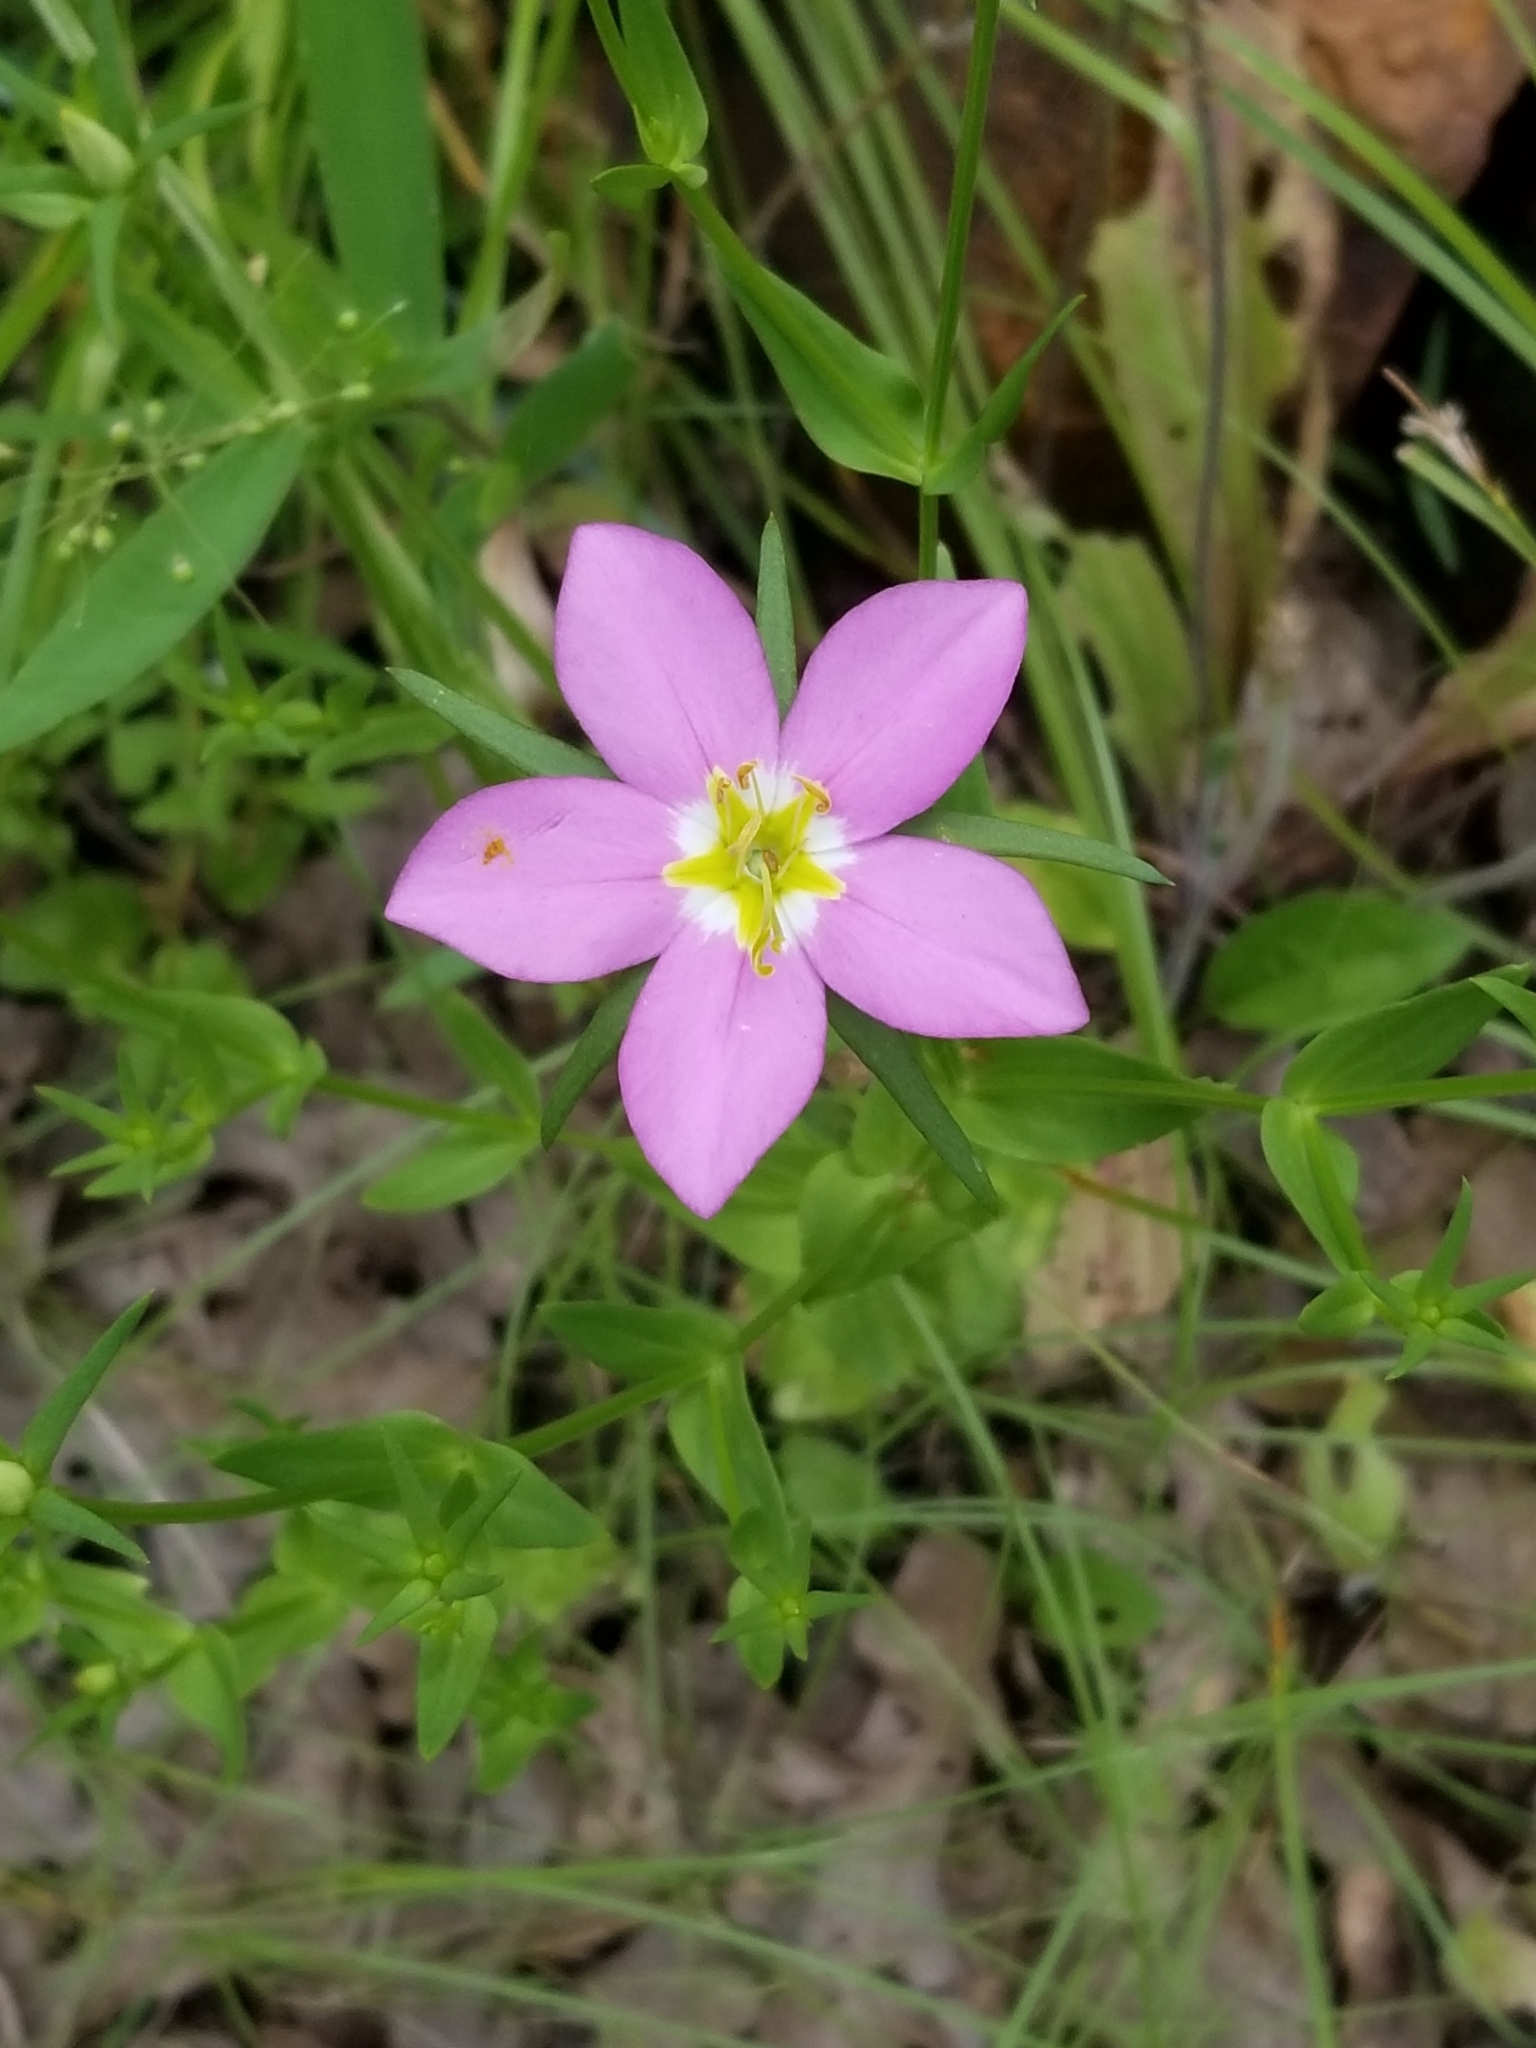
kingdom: Plantae
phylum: Tracheophyta
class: Magnoliopsida
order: Gentianales
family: Gentianaceae
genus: Sabatia
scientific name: Sabatia campestris
